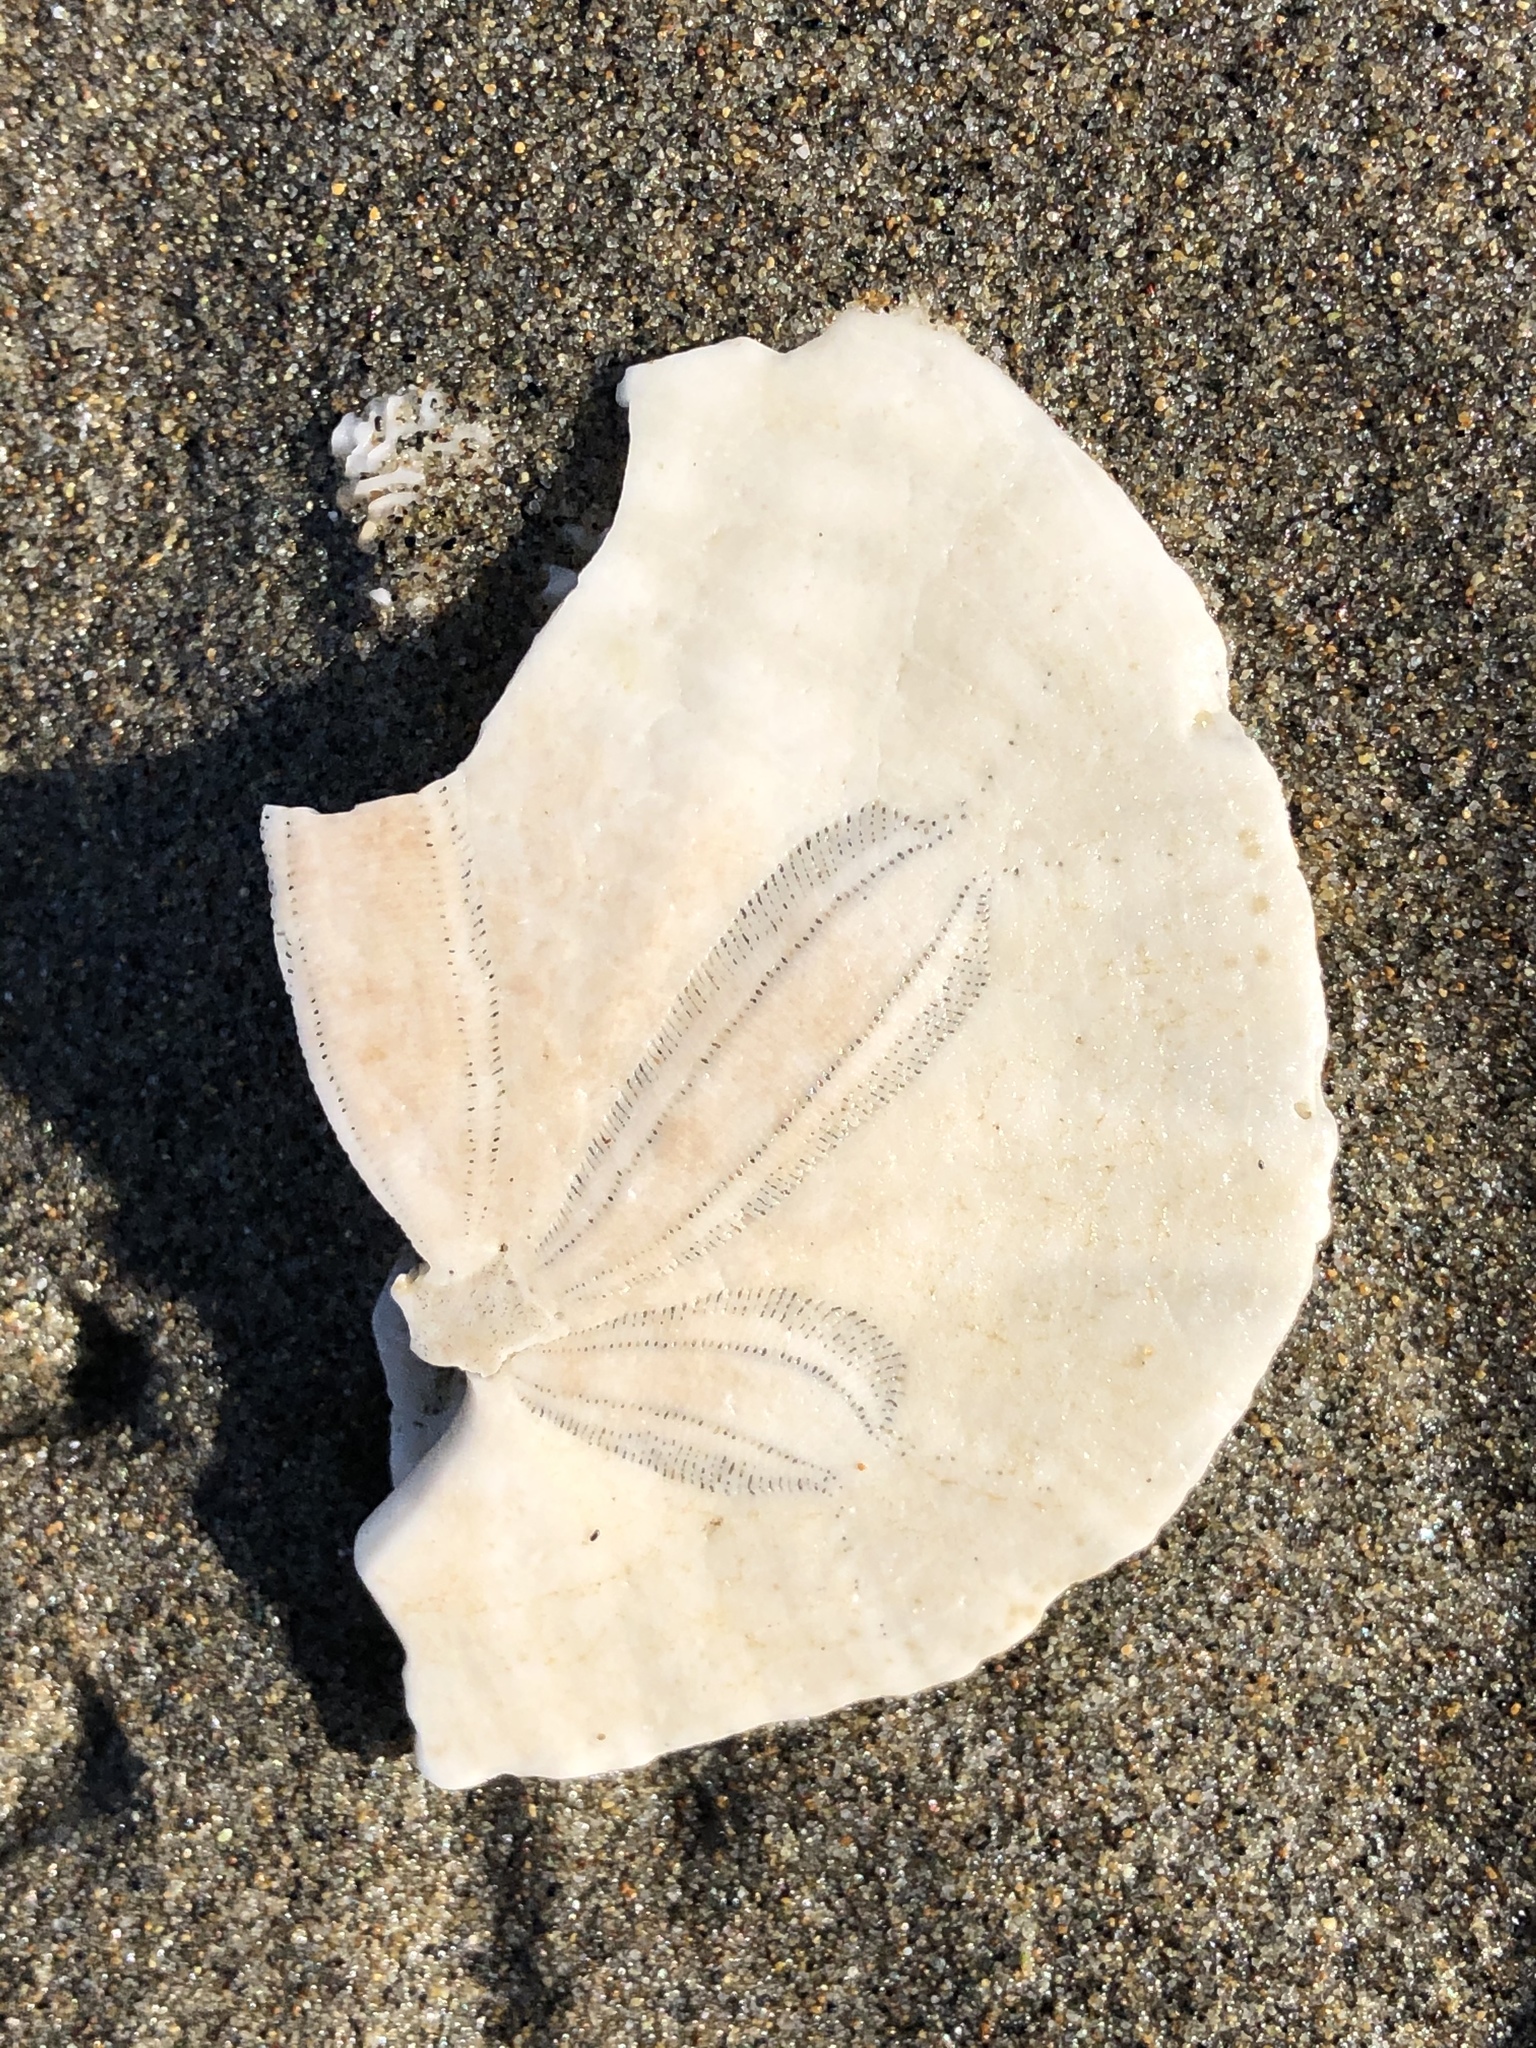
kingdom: Animalia
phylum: Echinodermata
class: Echinoidea
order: Echinolampadacea
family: Dendrasteridae
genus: Dendraster
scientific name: Dendraster excentricus
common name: Eccentric sand dollar sea urchin
